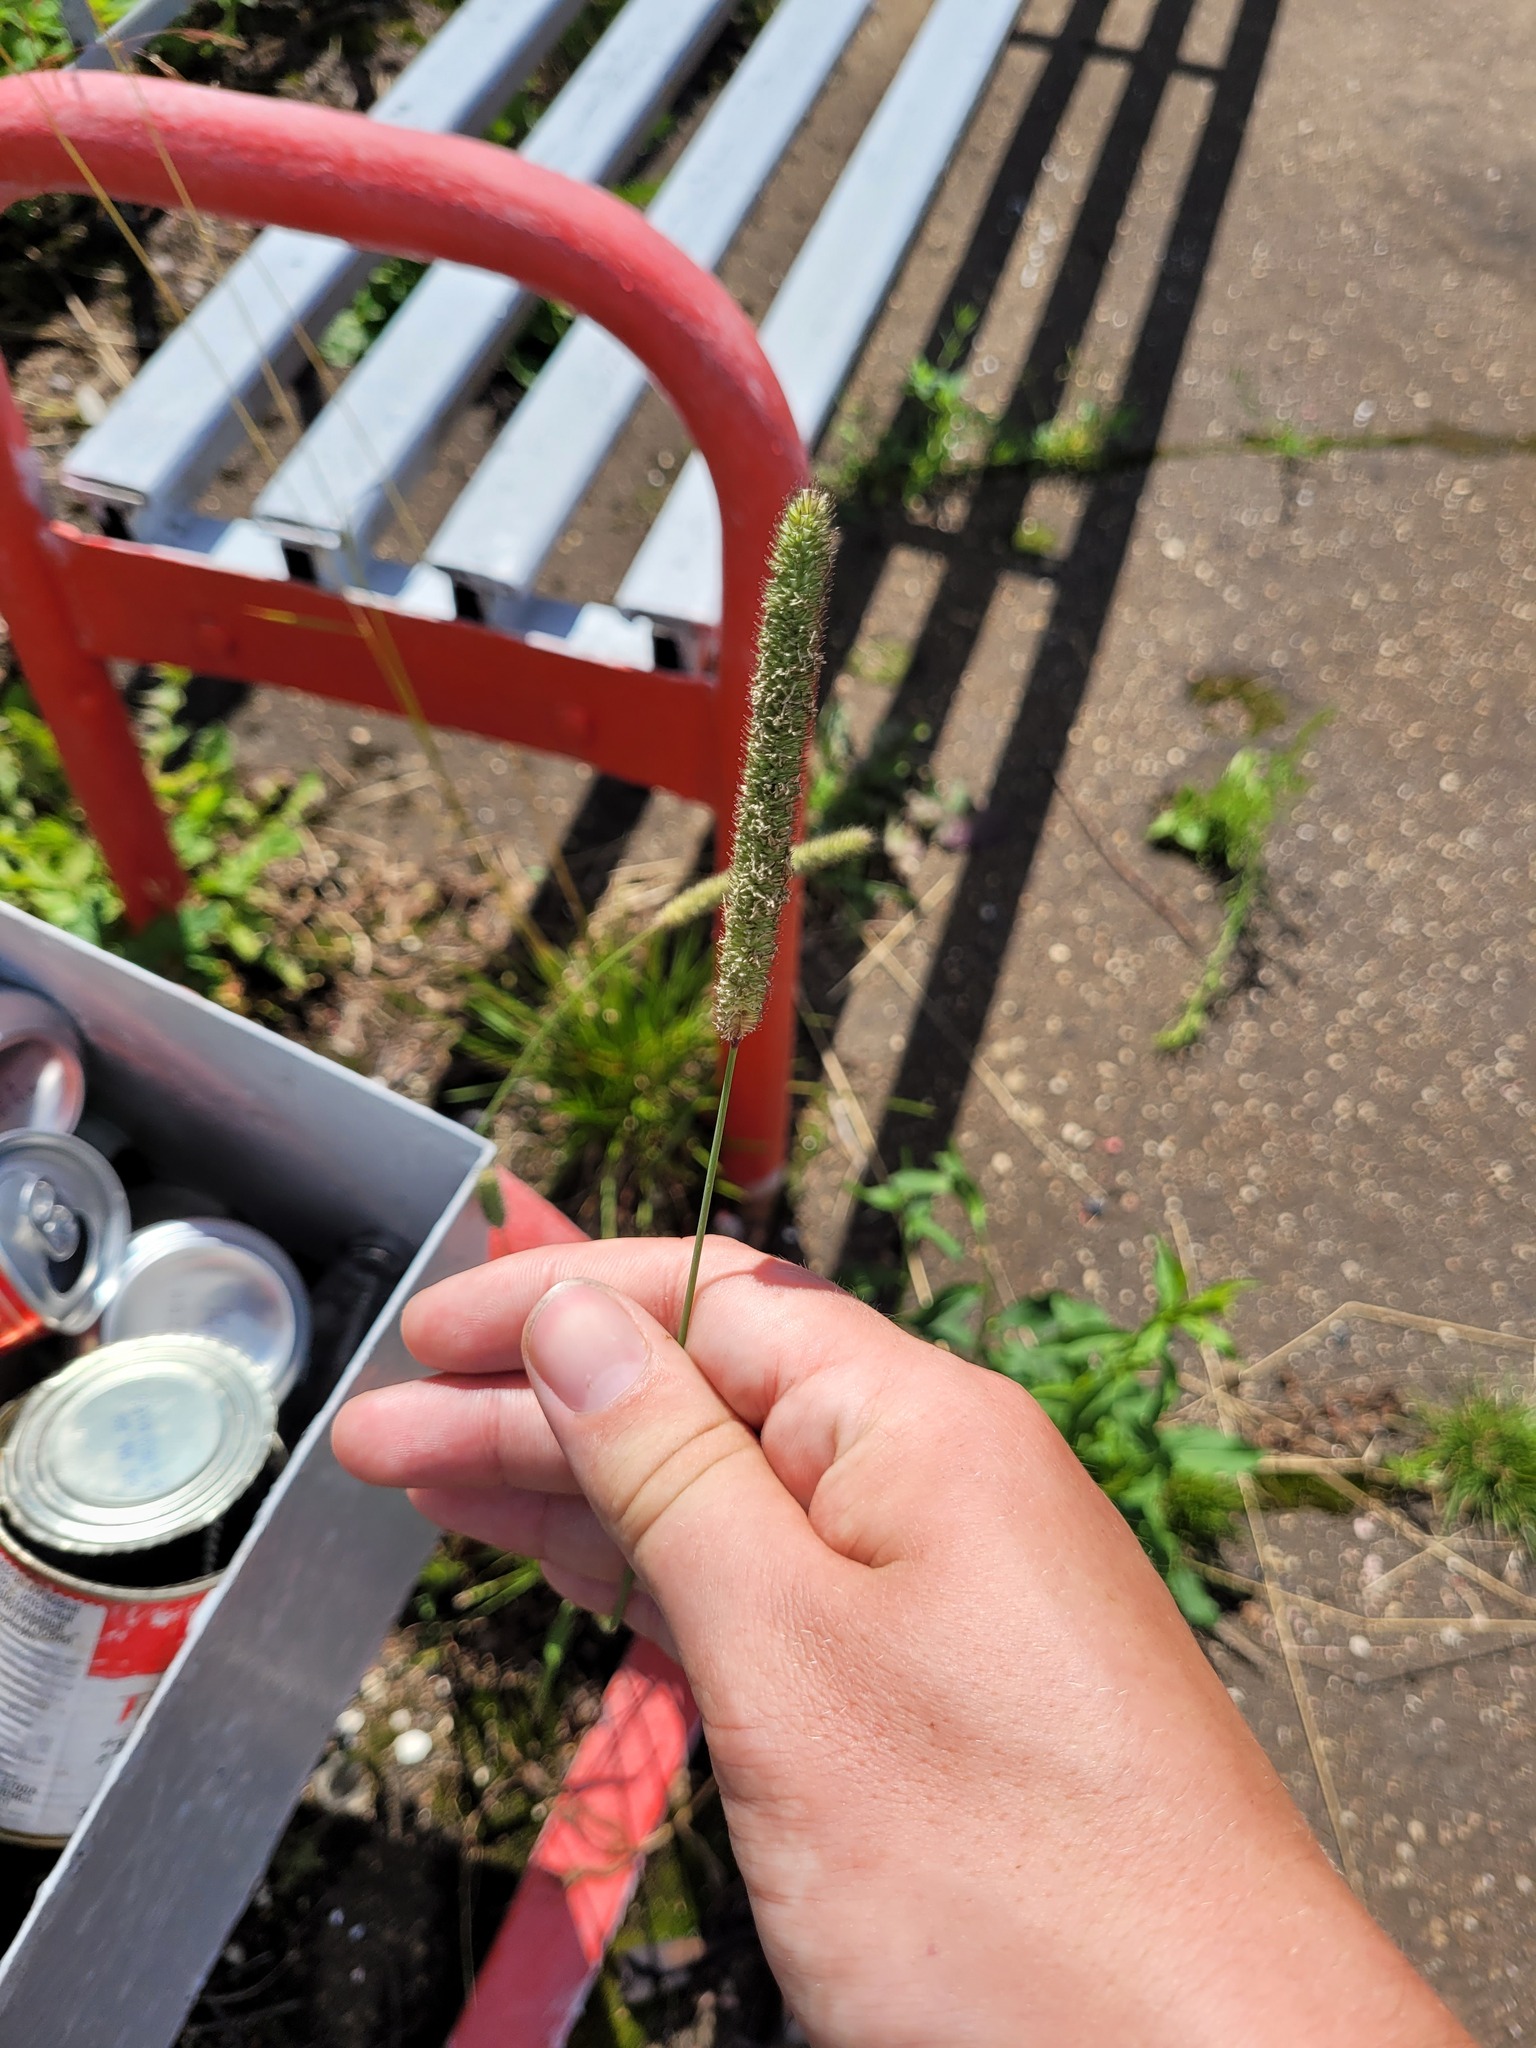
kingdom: Plantae
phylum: Tracheophyta
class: Liliopsida
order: Poales
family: Poaceae
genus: Phleum
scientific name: Phleum pratense
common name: Timothy grass
